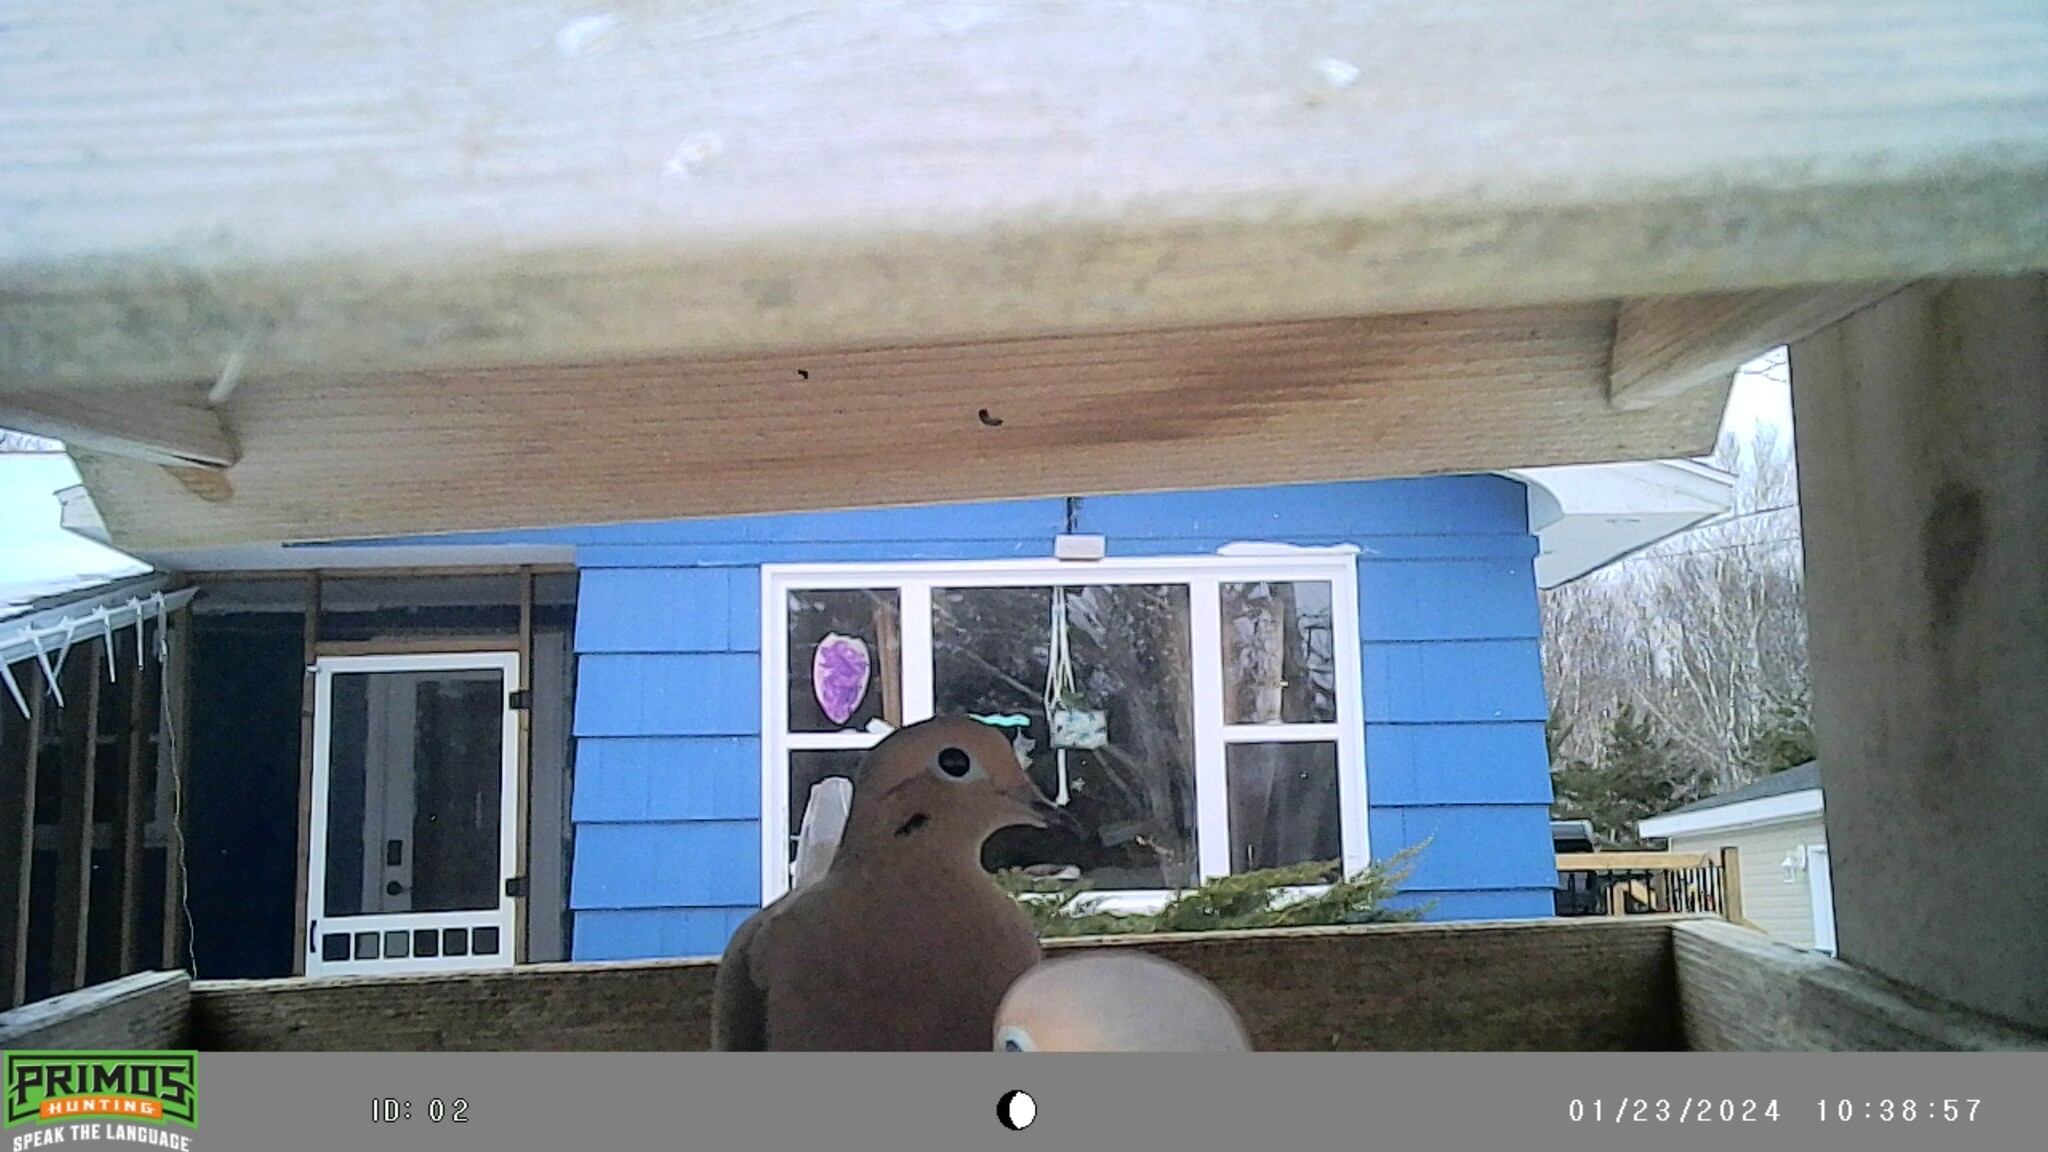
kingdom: Animalia
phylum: Chordata
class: Aves
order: Columbiformes
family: Columbidae
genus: Zenaida
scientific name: Zenaida macroura
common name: Mourning dove
